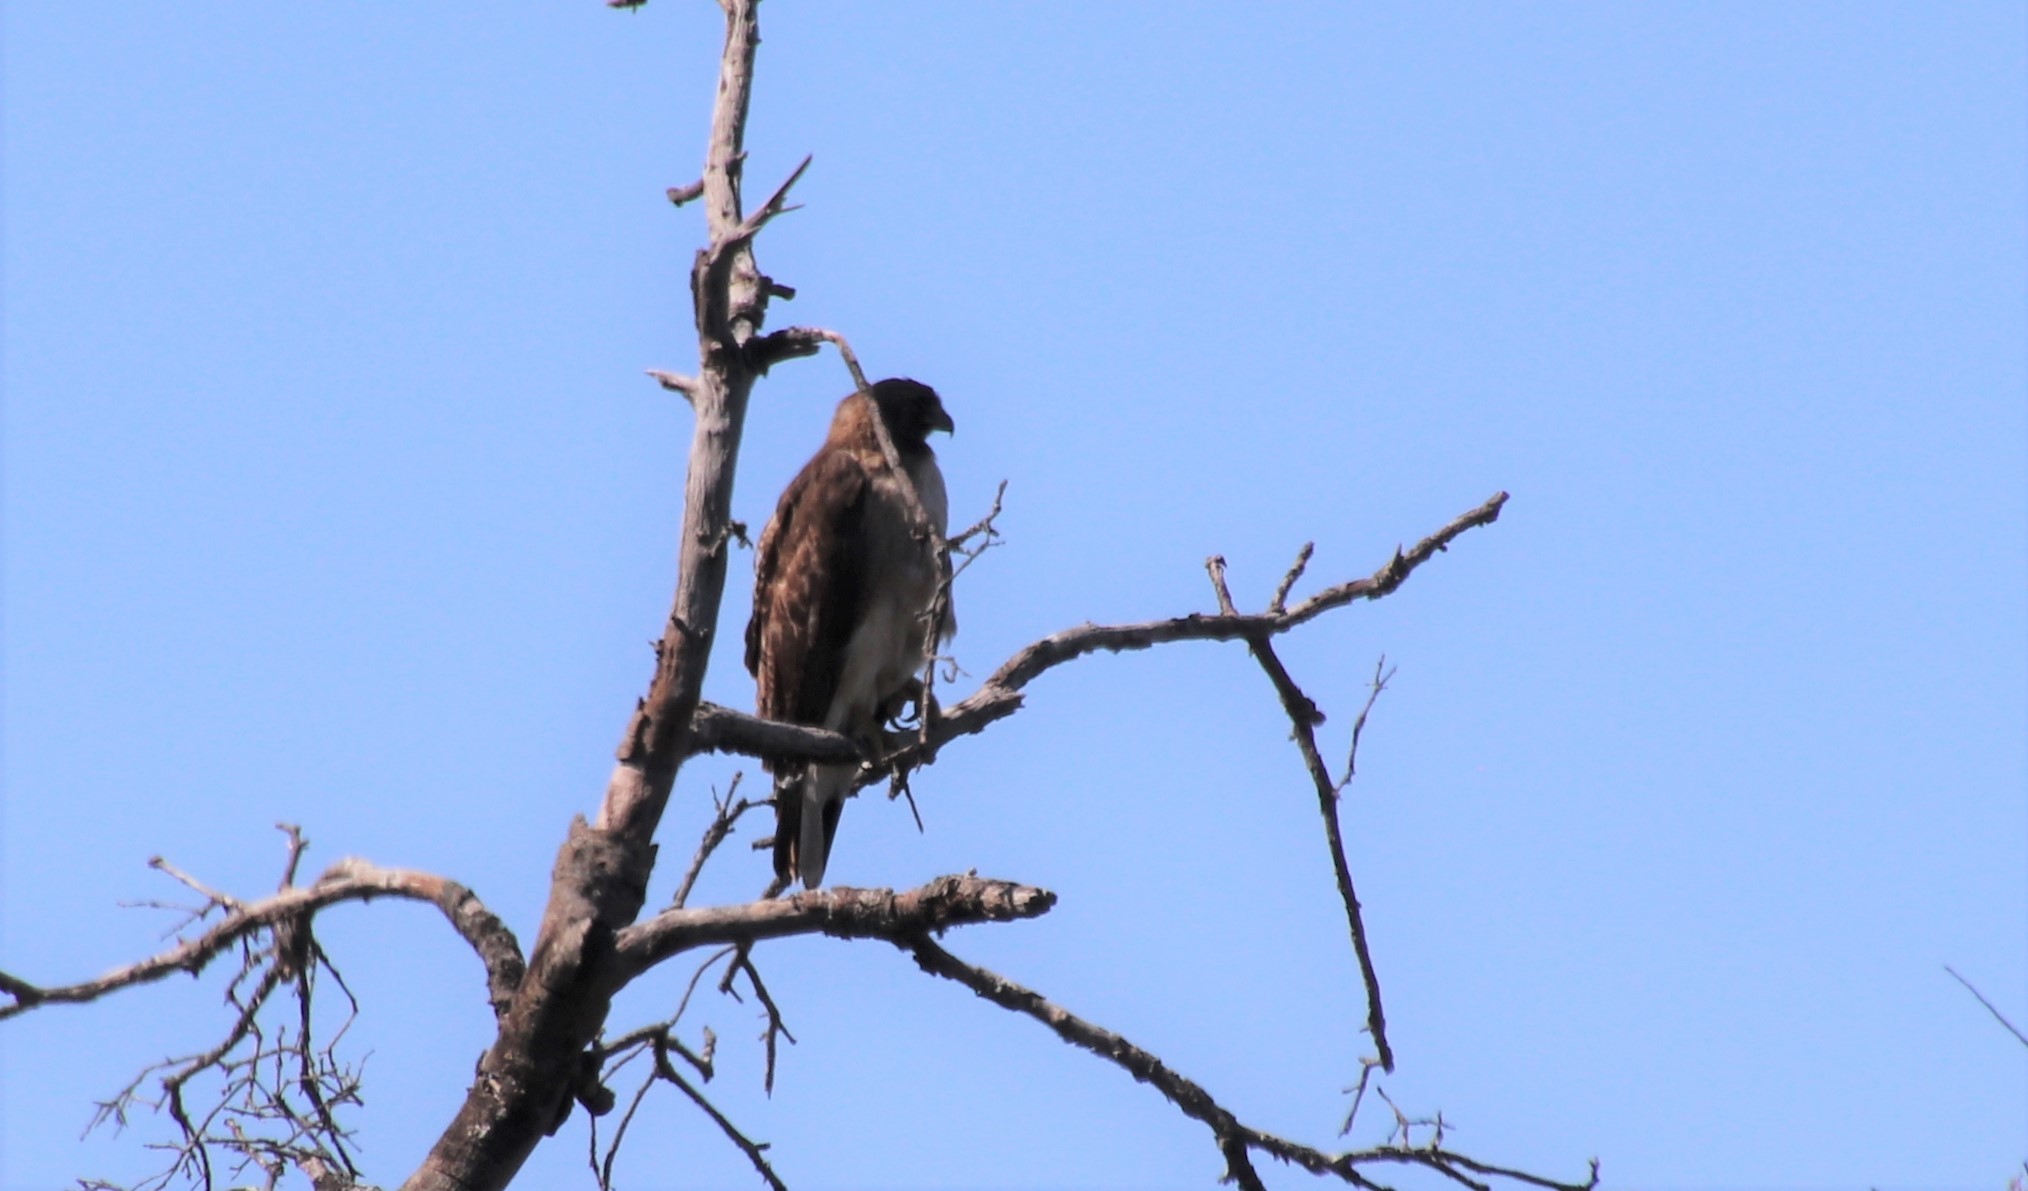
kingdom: Animalia
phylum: Chordata
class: Aves
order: Accipitriformes
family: Accipitridae
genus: Buteo
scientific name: Buteo jamaicensis
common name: Red-tailed hawk
